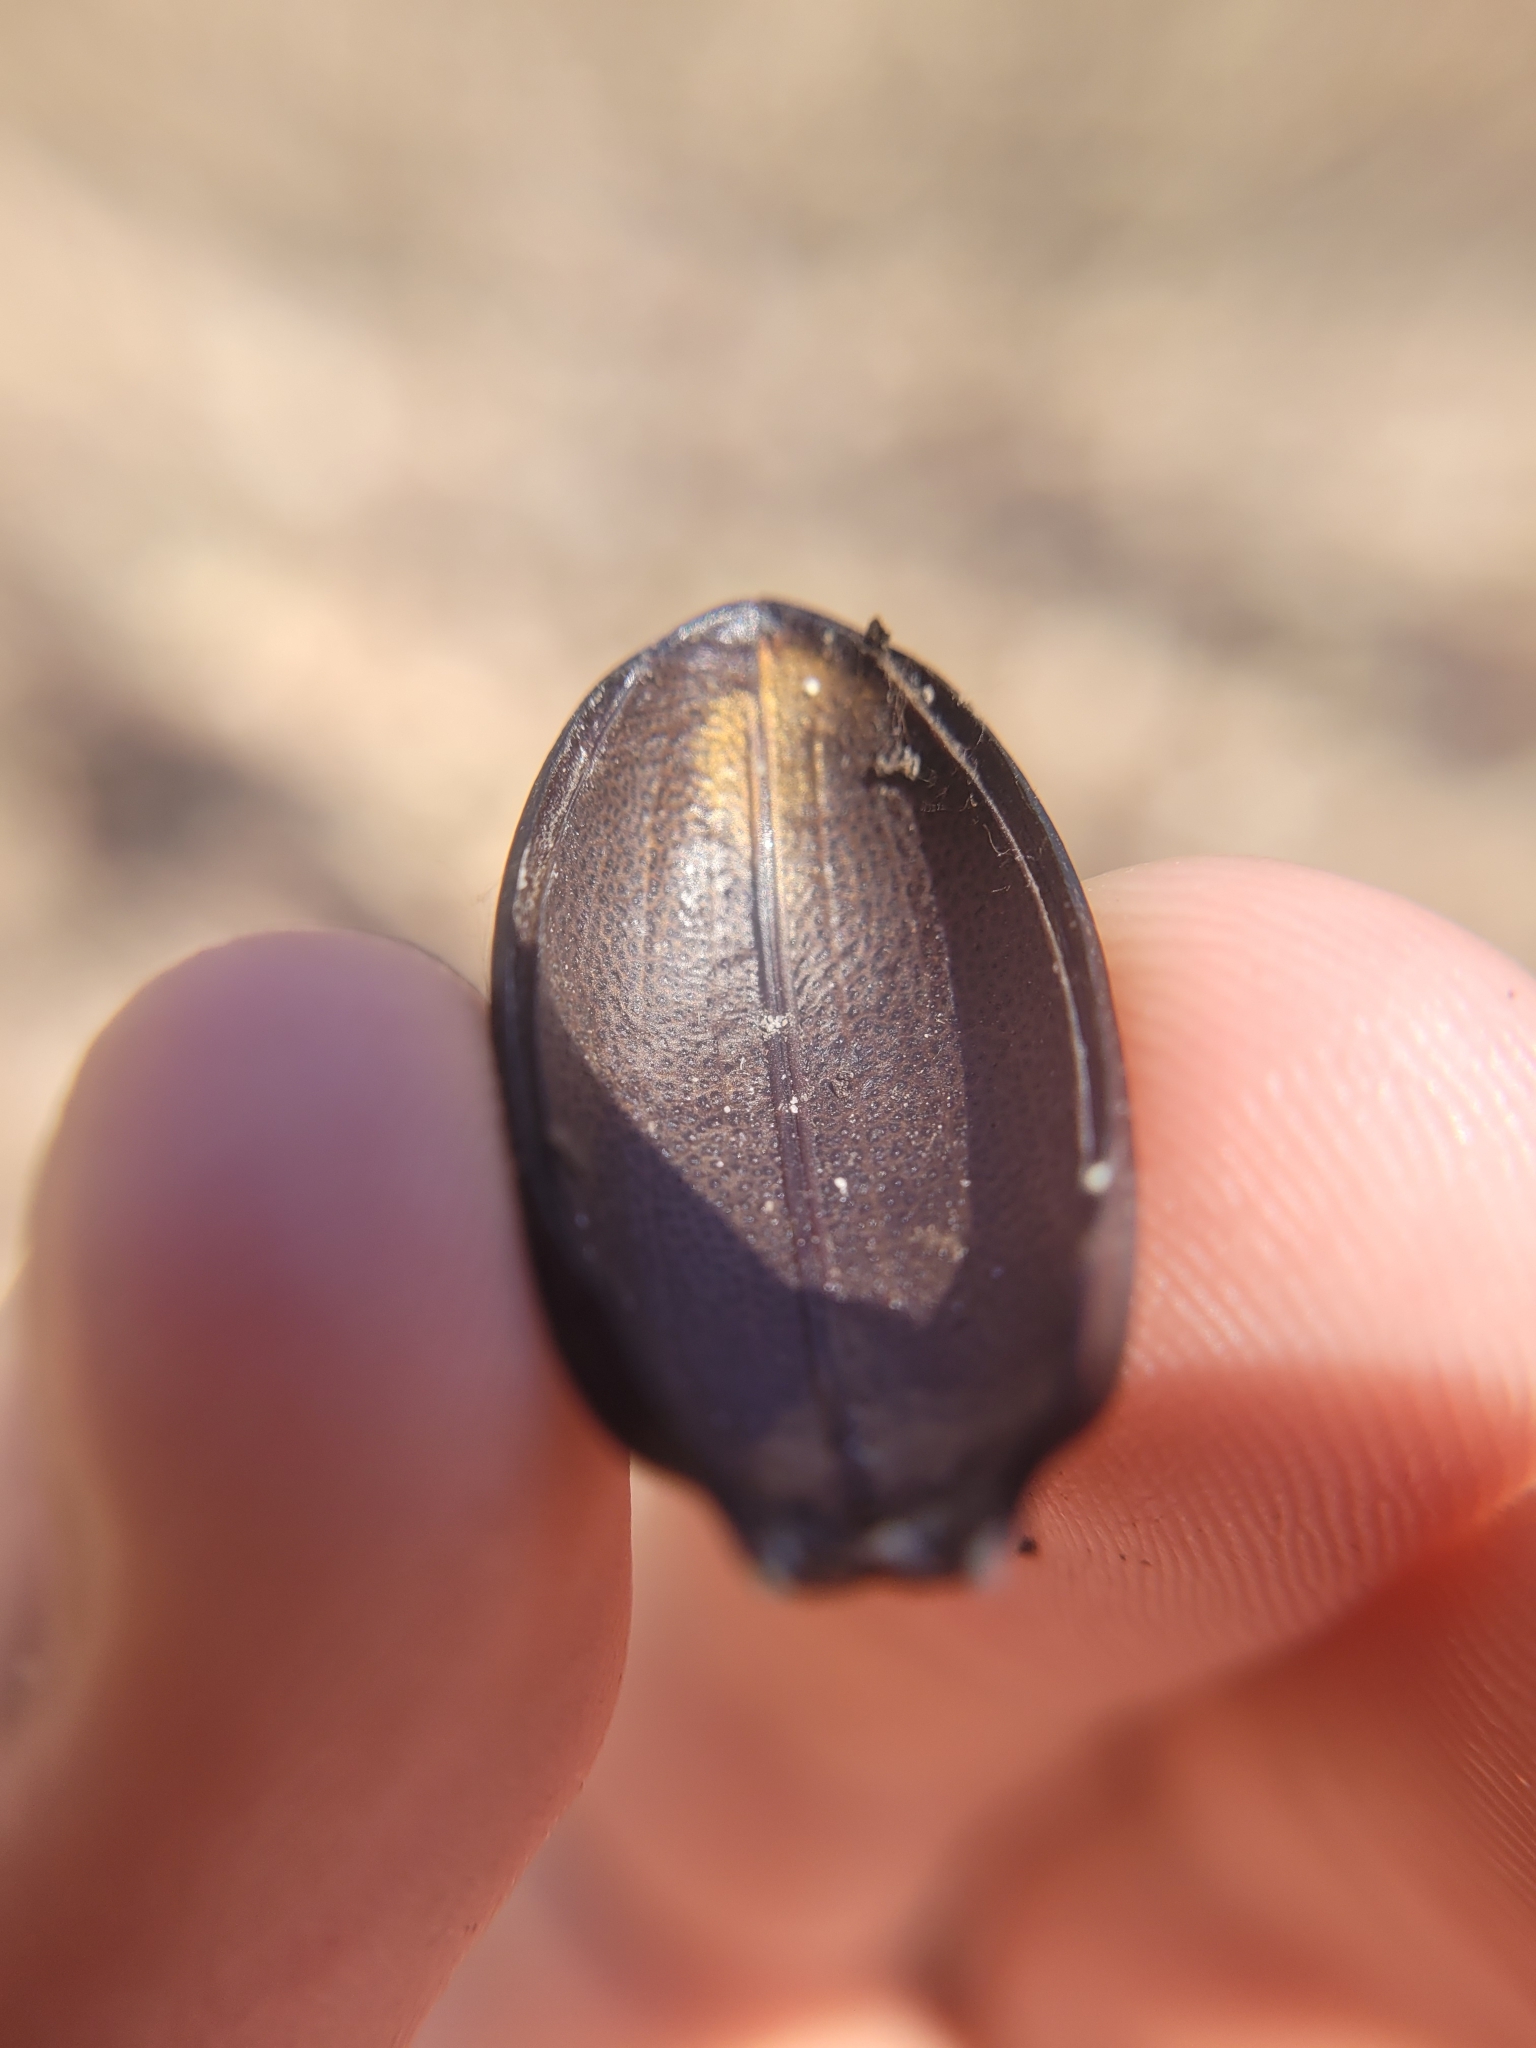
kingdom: Animalia
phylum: Arthropoda
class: Insecta
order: Coleoptera
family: Carabidae
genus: Carabus
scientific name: Carabus coriaceus
